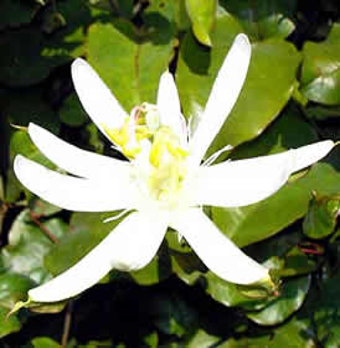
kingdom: Plantae
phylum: Tracheophyta
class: Magnoliopsida
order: Malpighiales
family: Passifloraceae
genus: Passiflora
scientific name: Passiflora setacea
